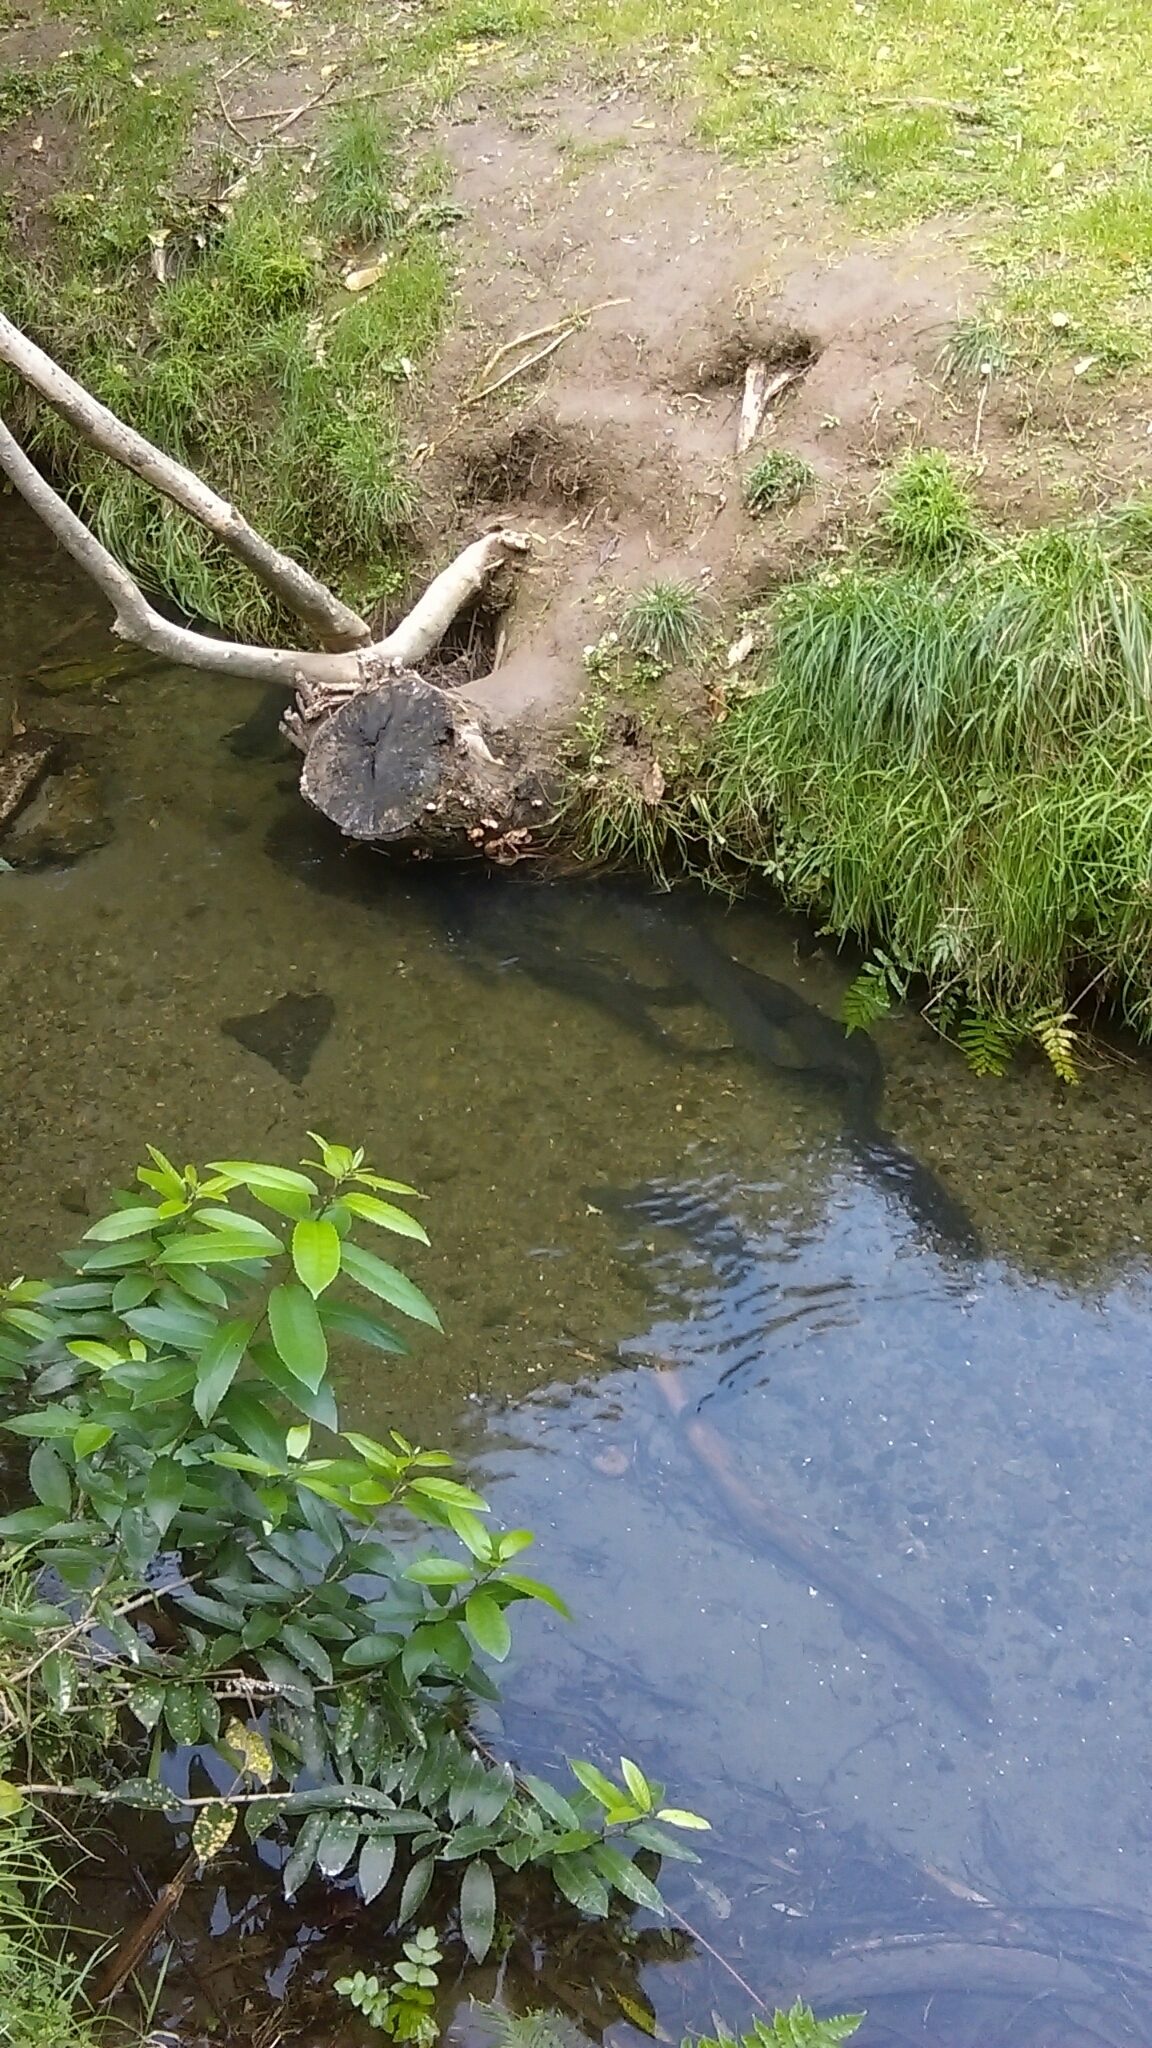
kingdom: Animalia
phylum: Chordata
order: Anguilliformes
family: Anguillidae
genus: Anguilla
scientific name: Anguilla
